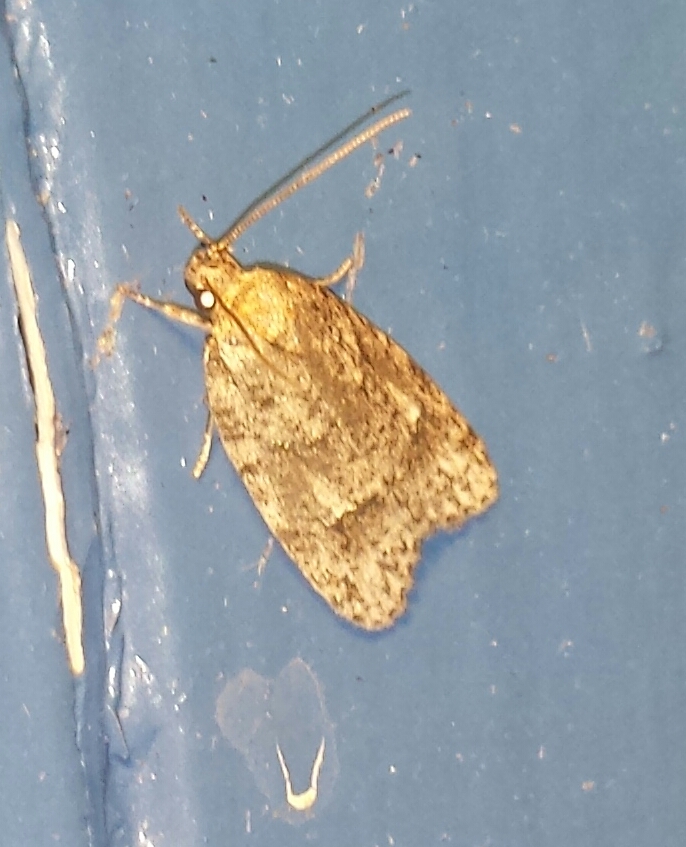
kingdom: Animalia
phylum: Arthropoda
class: Insecta
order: Lepidoptera
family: Depressariidae
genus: Bibarrambla
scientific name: Bibarrambla allenella
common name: Bog bibarrambla moth
